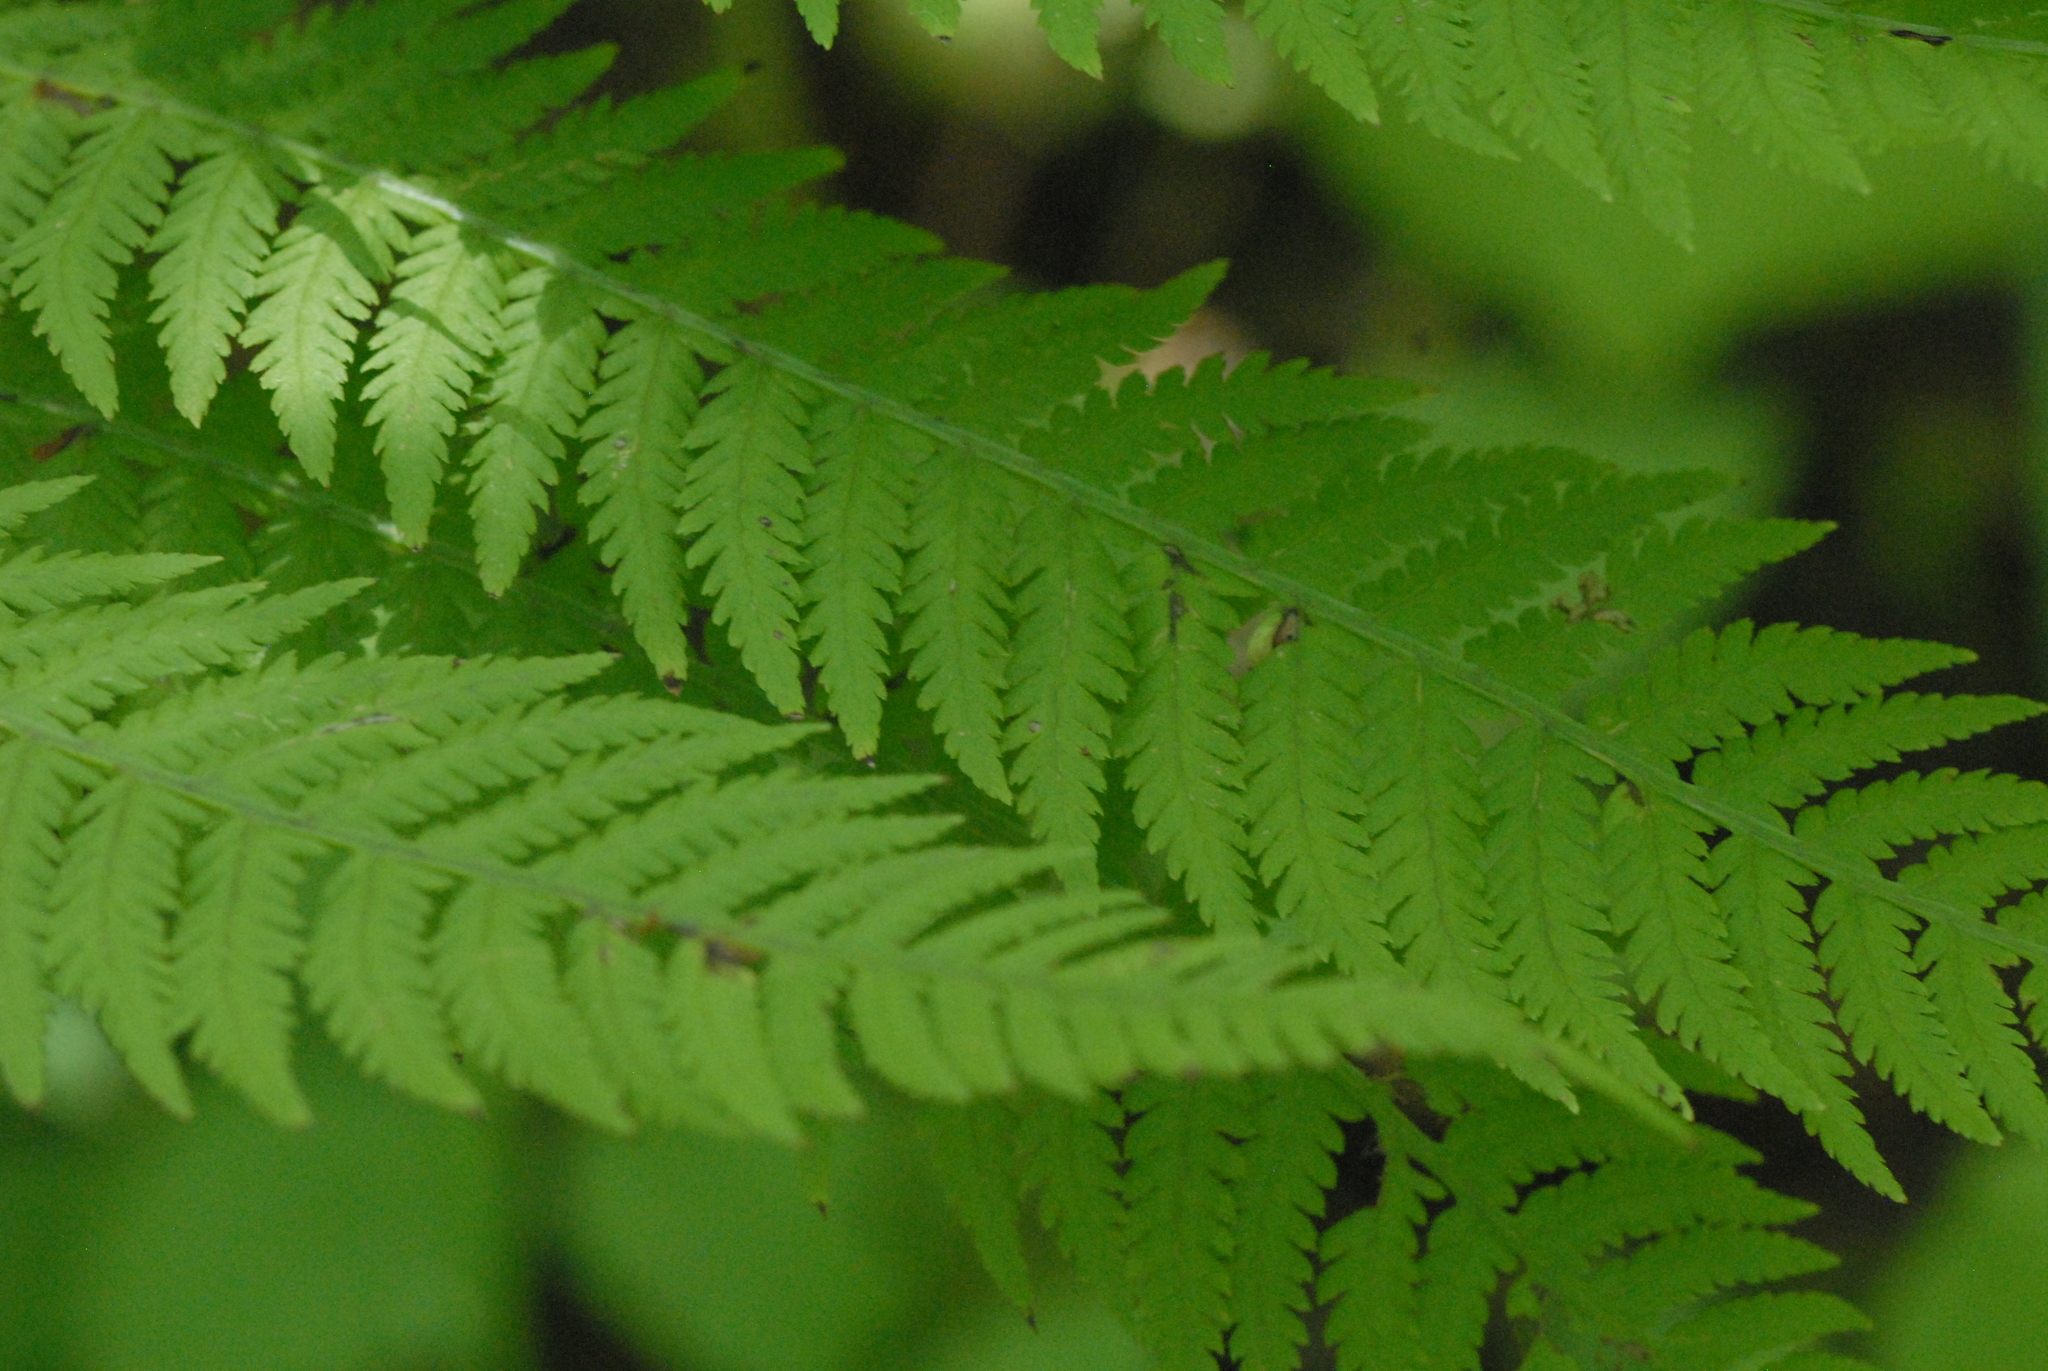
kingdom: Plantae
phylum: Tracheophyta
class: Polypodiopsida
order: Polypodiales
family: Athyriaceae
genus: Athyrium
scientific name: Athyrium filix-femina
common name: Lady fern
